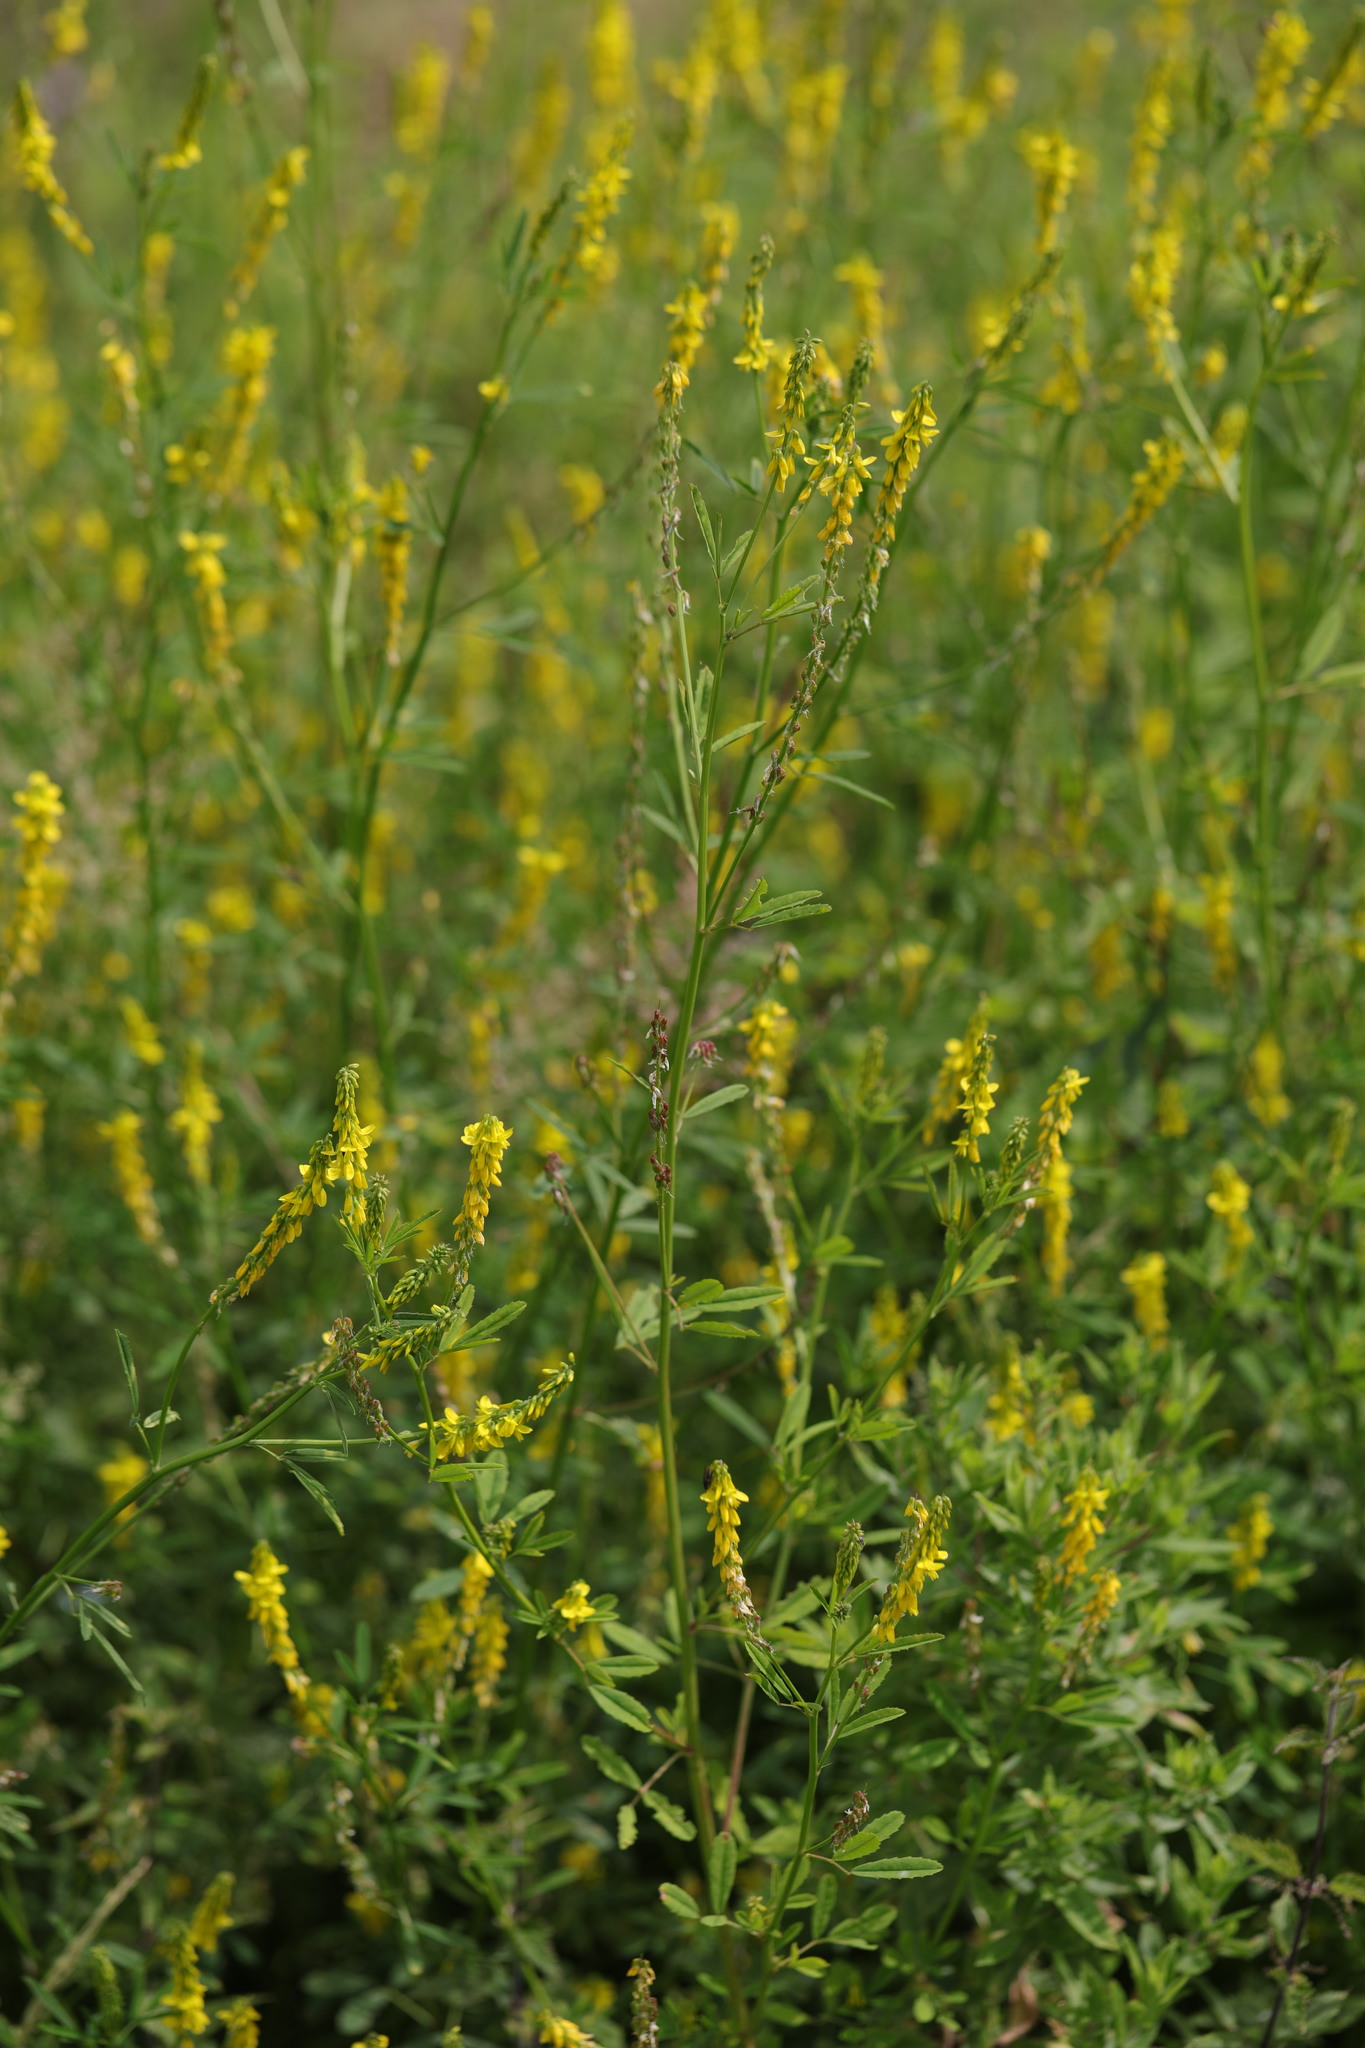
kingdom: Plantae
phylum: Tracheophyta
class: Magnoliopsida
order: Fabales
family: Fabaceae
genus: Melilotus
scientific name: Melilotus officinalis
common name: Sweetclover
